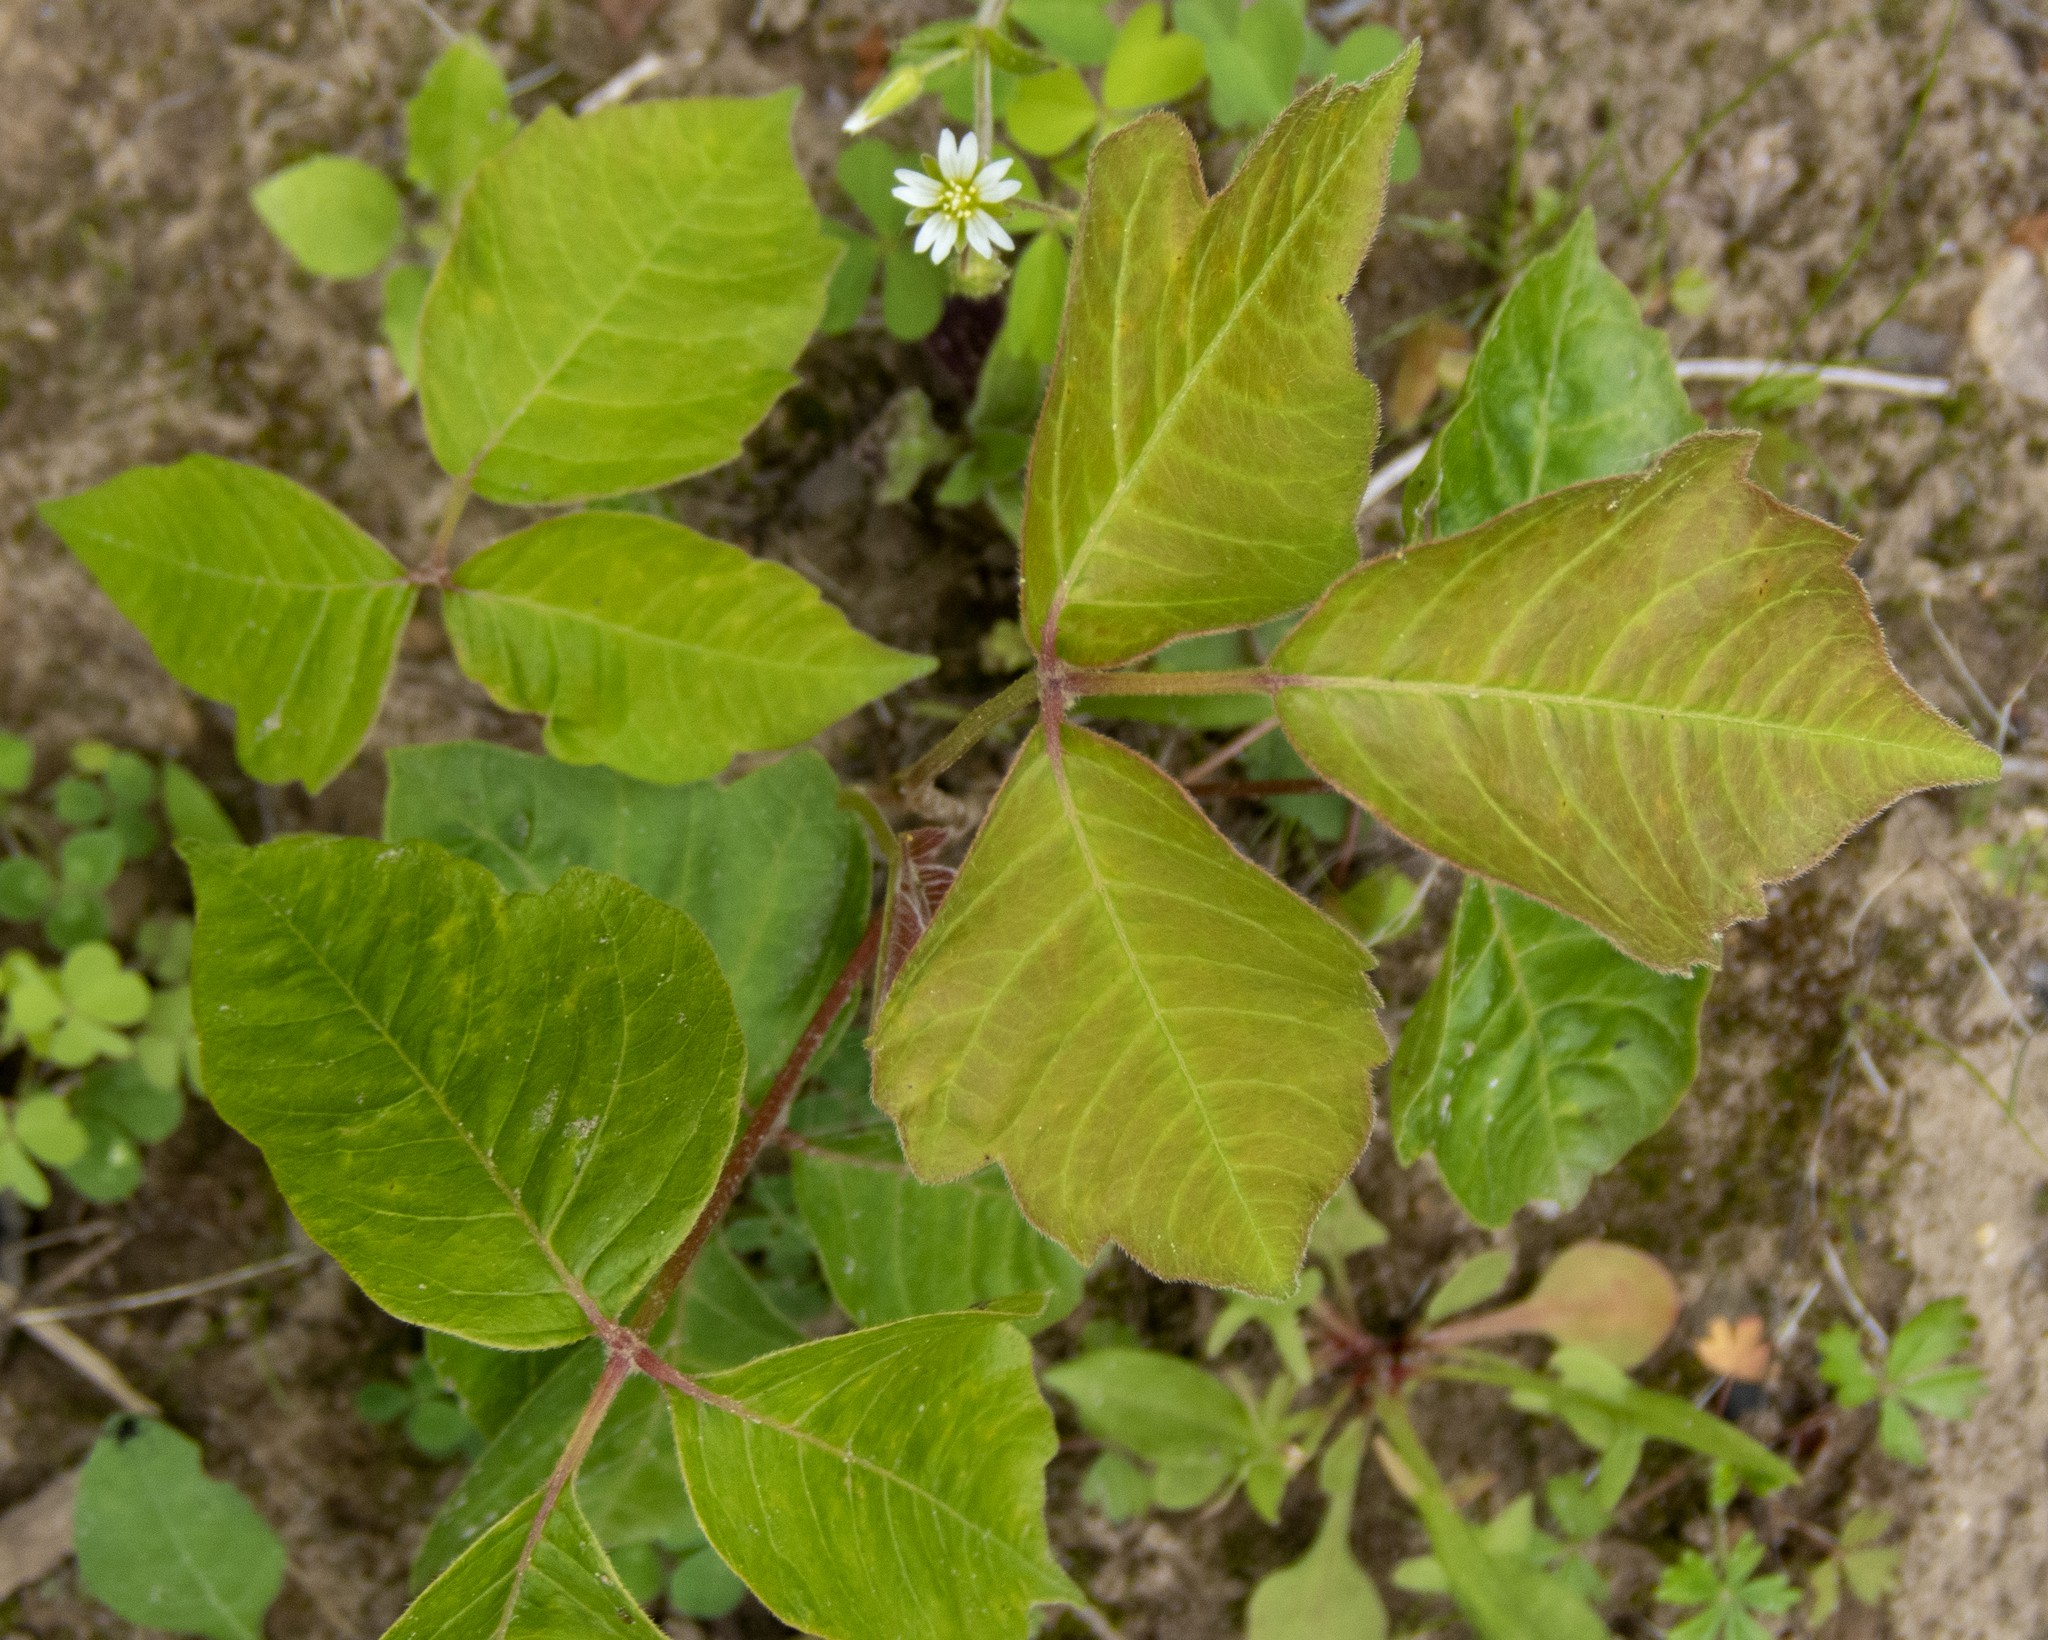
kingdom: Plantae
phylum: Tracheophyta
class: Magnoliopsida
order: Sapindales
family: Anacardiaceae
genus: Toxicodendron
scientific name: Toxicodendron radicans
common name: Poison ivy
